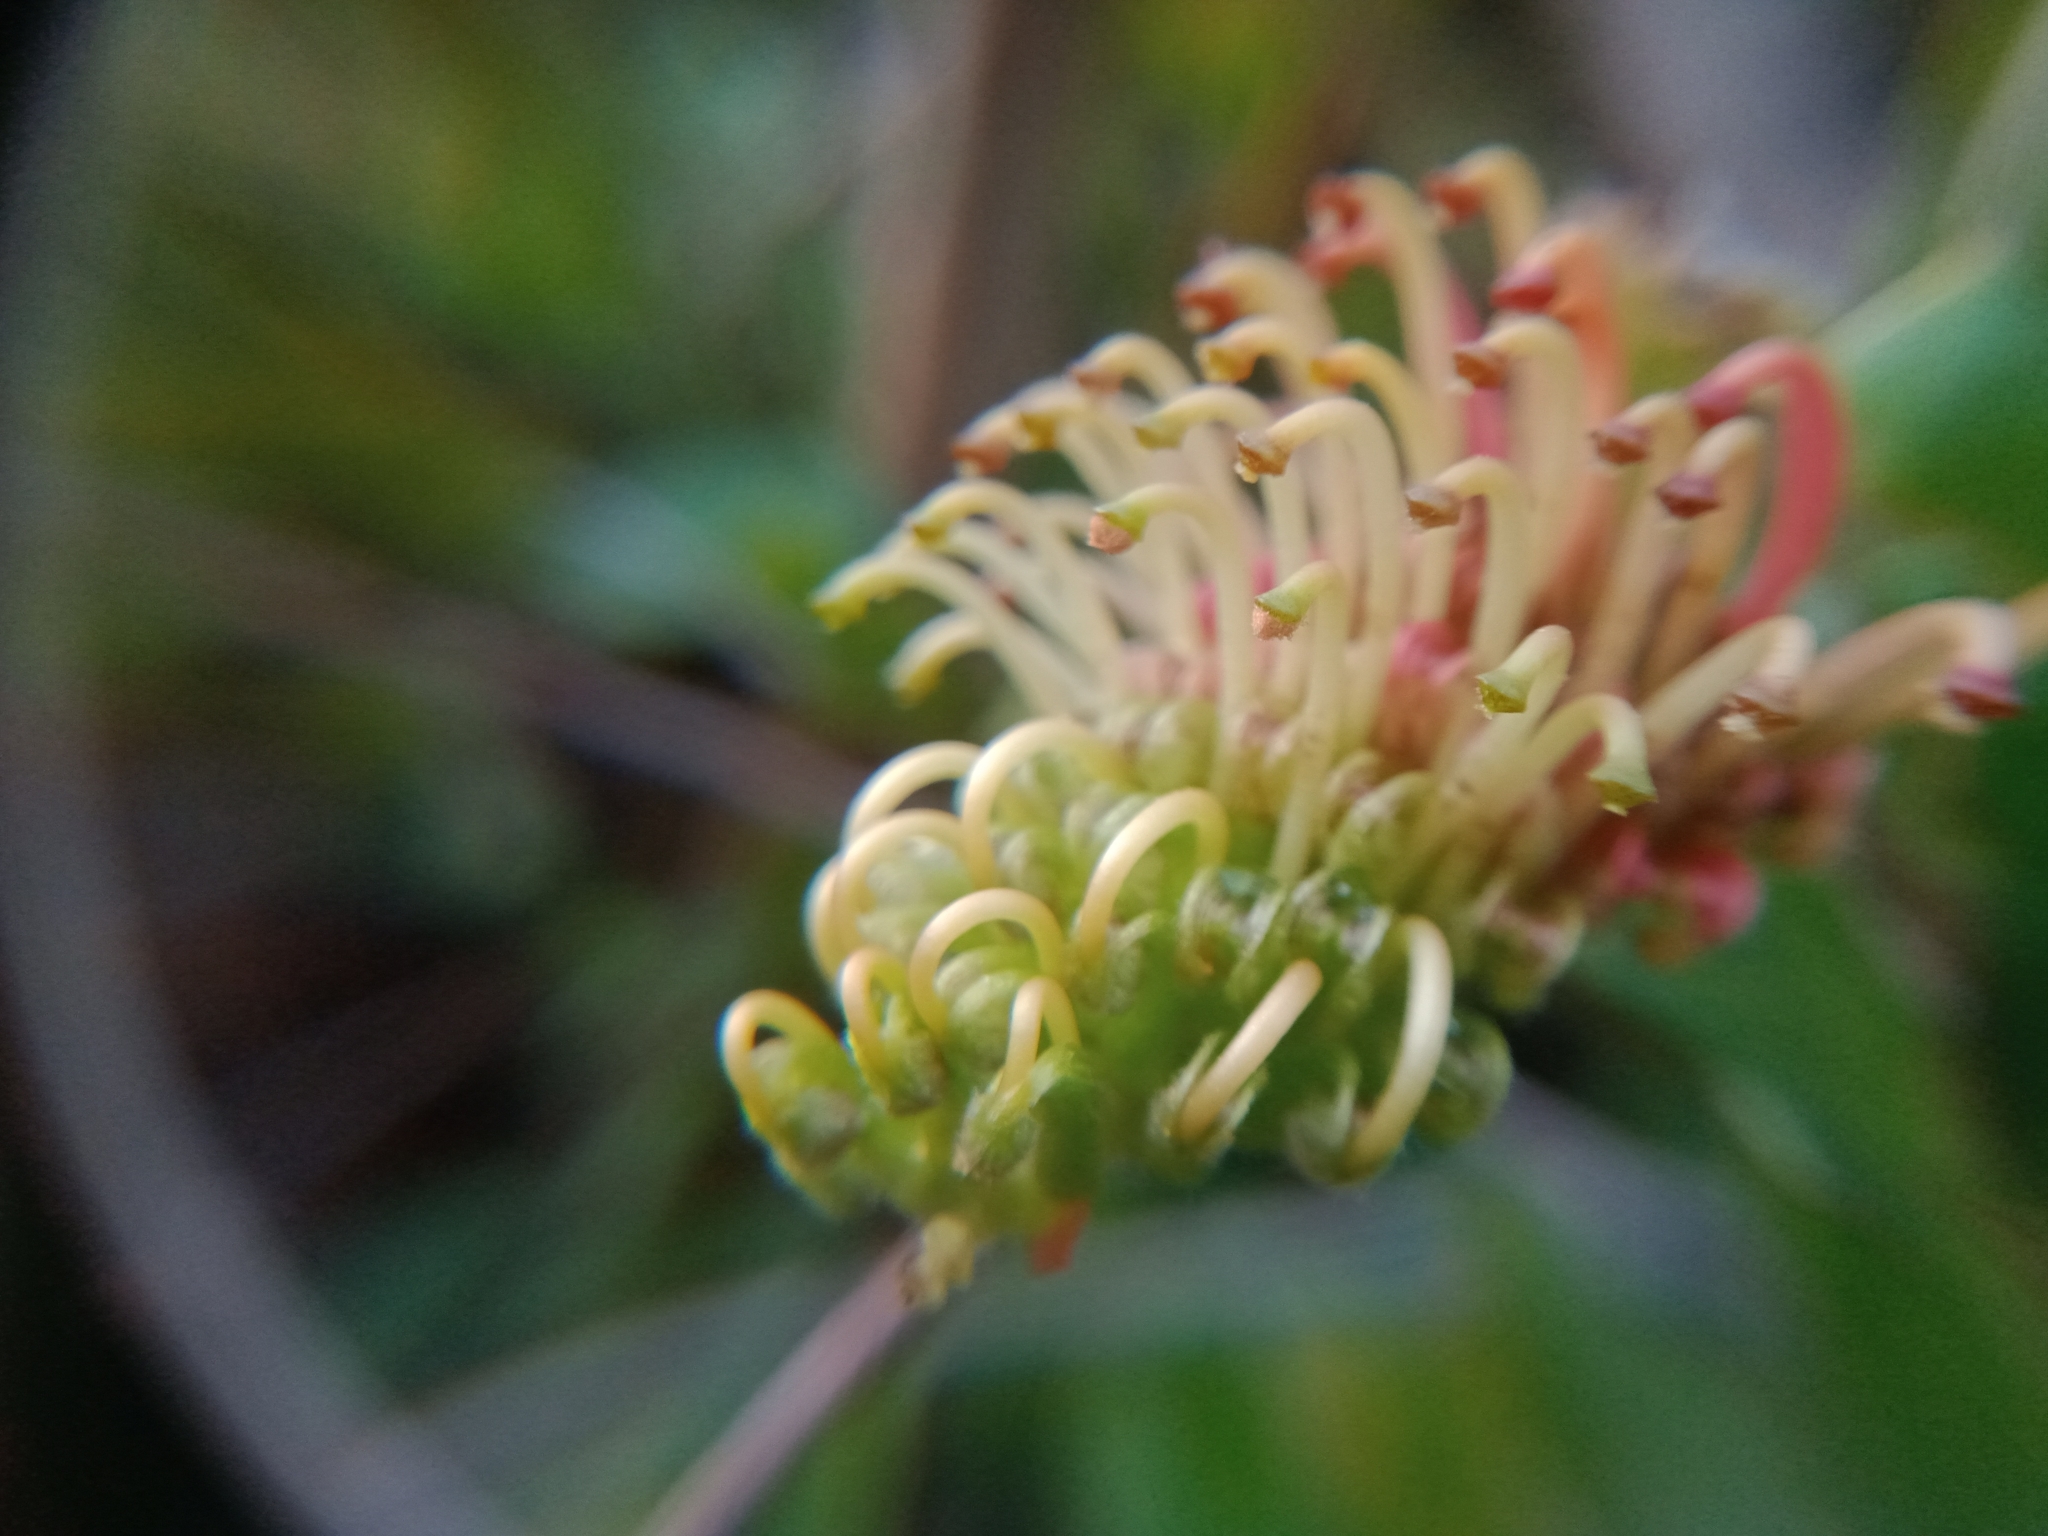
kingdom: Plantae
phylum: Tracheophyta
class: Magnoliopsida
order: Proteales
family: Proteaceae
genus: Grevillea
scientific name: Grevillea bedggoodiana
